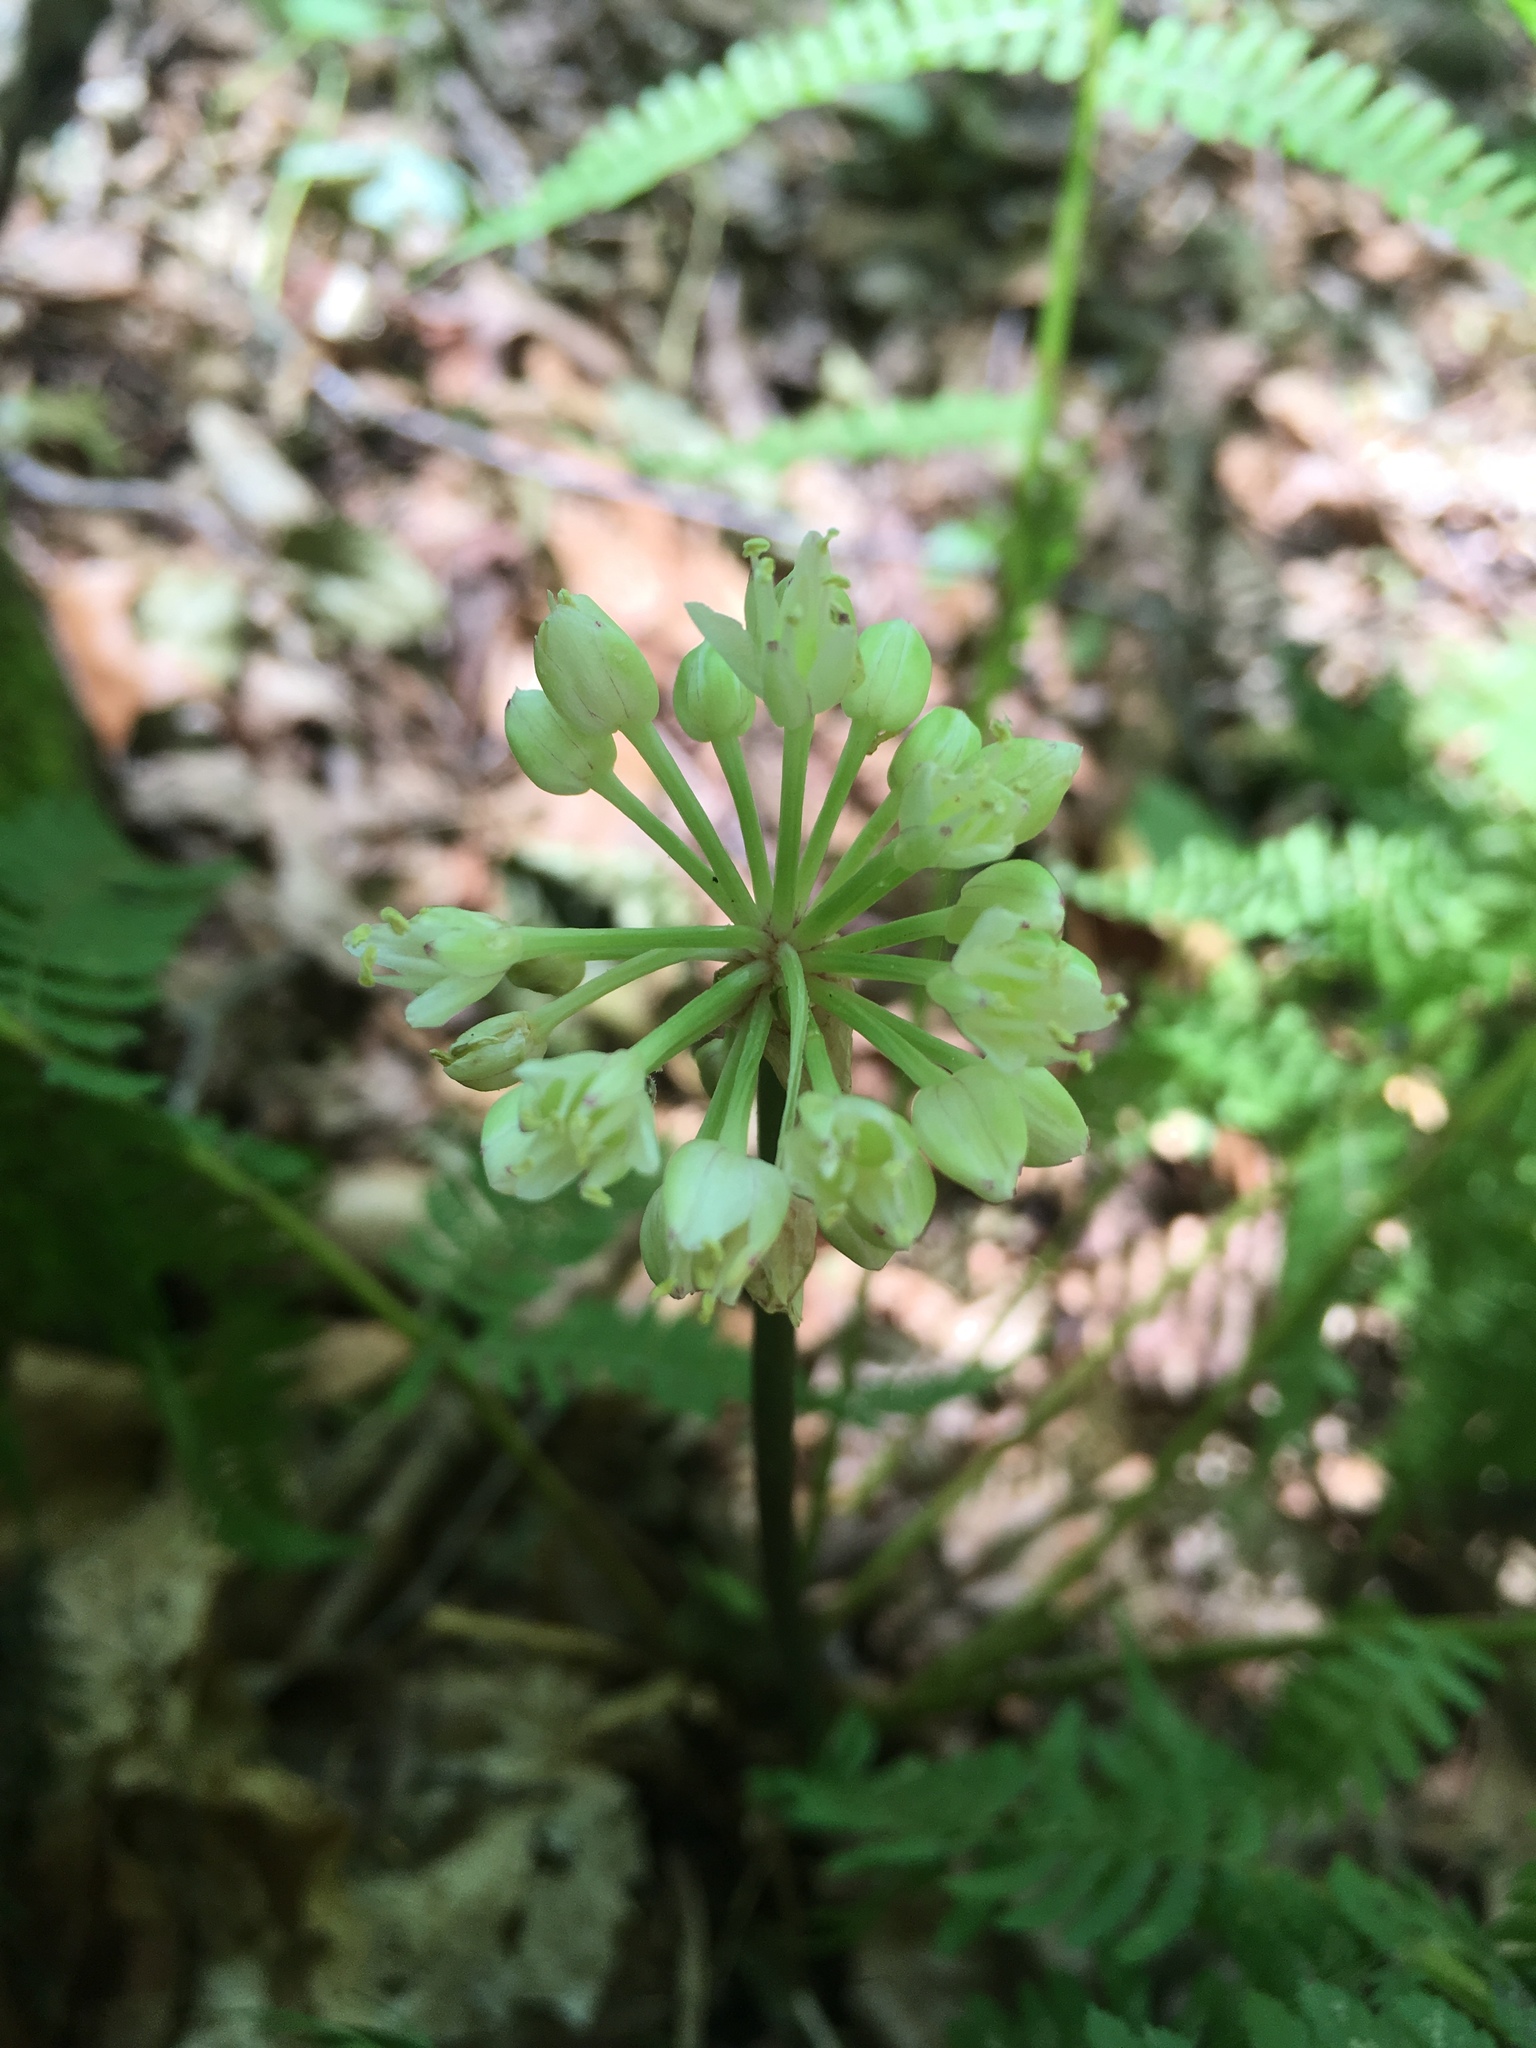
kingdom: Plantae
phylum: Tracheophyta
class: Liliopsida
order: Asparagales
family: Amaryllidaceae
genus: Allium
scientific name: Allium tricoccum
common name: Ramp
